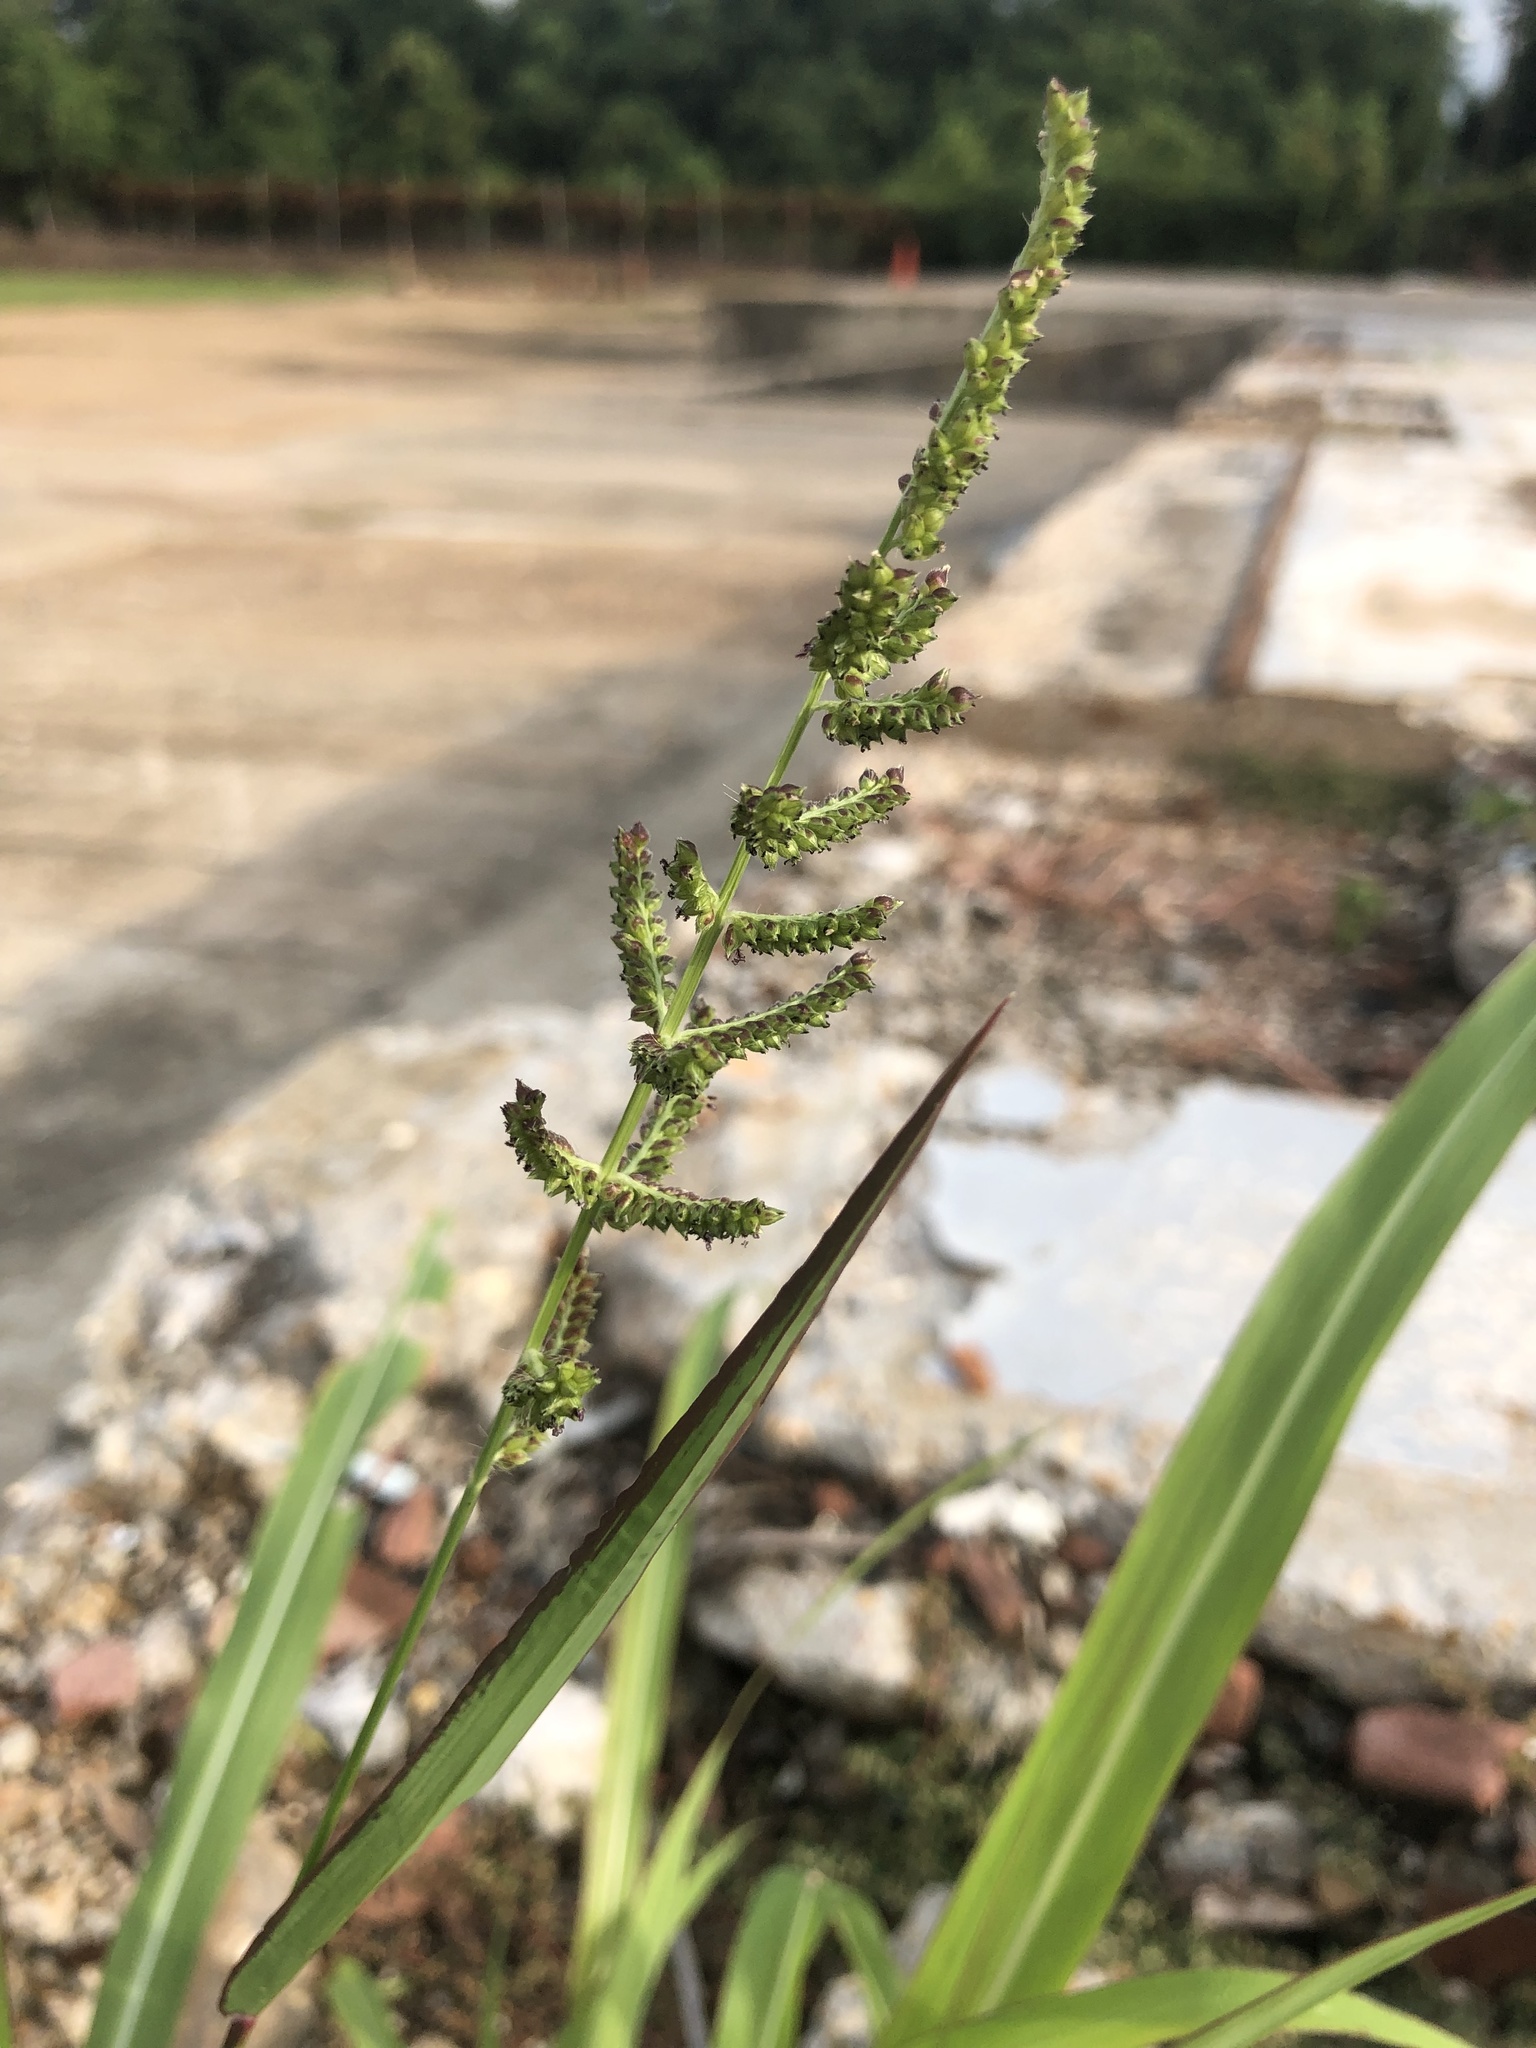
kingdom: Plantae
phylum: Tracheophyta
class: Liliopsida
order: Poales
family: Poaceae
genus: Echinochloa
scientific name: Echinochloa colonum
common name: Jungle rice
